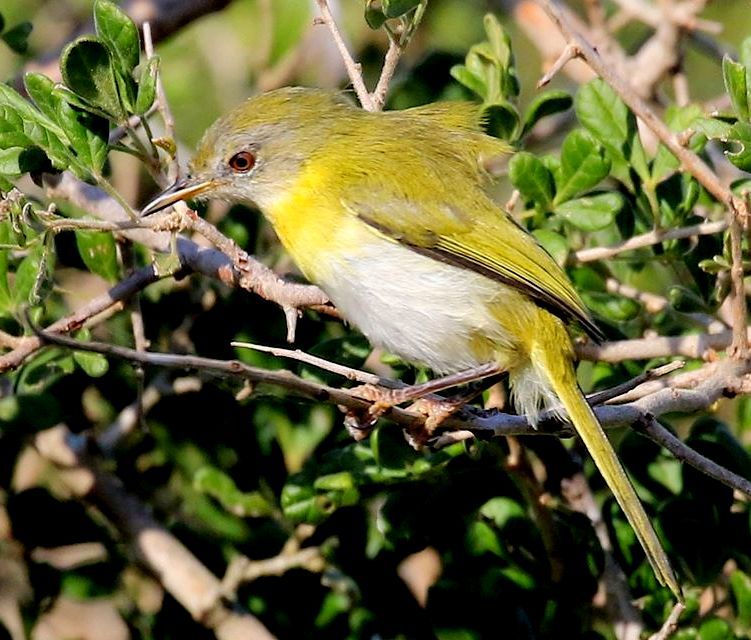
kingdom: Animalia
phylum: Chordata
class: Aves
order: Passeriformes
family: Cisticolidae
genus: Apalis
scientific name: Apalis flavida
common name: Yellow-breasted apalis
